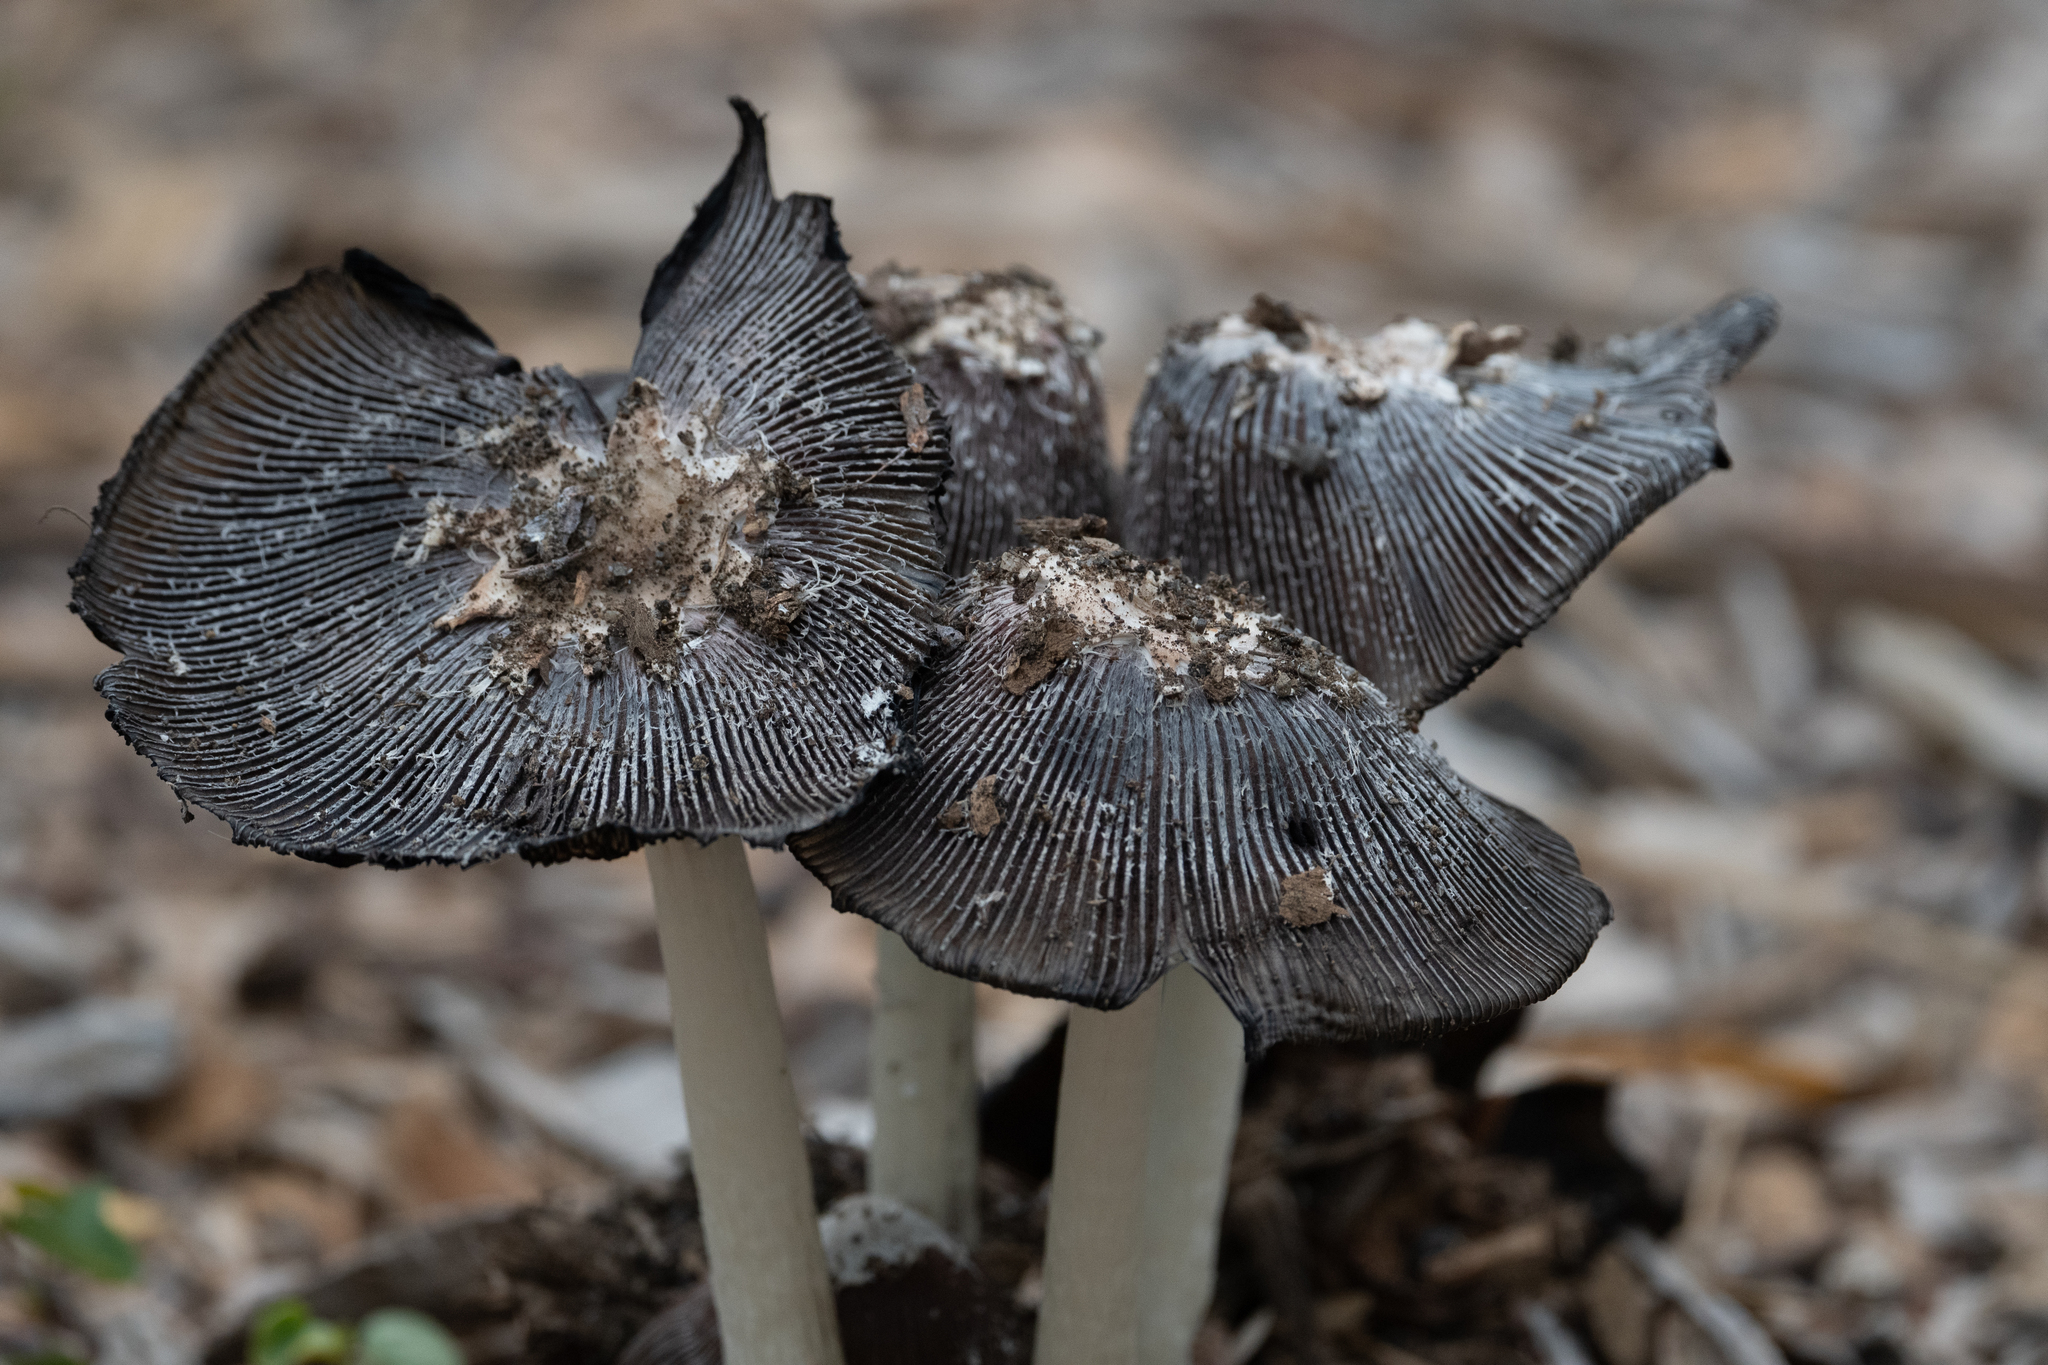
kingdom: Fungi
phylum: Basidiomycota
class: Agaricomycetes
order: Agaricales
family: Agaricaceae
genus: Coprinus
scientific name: Coprinus calyptratus
